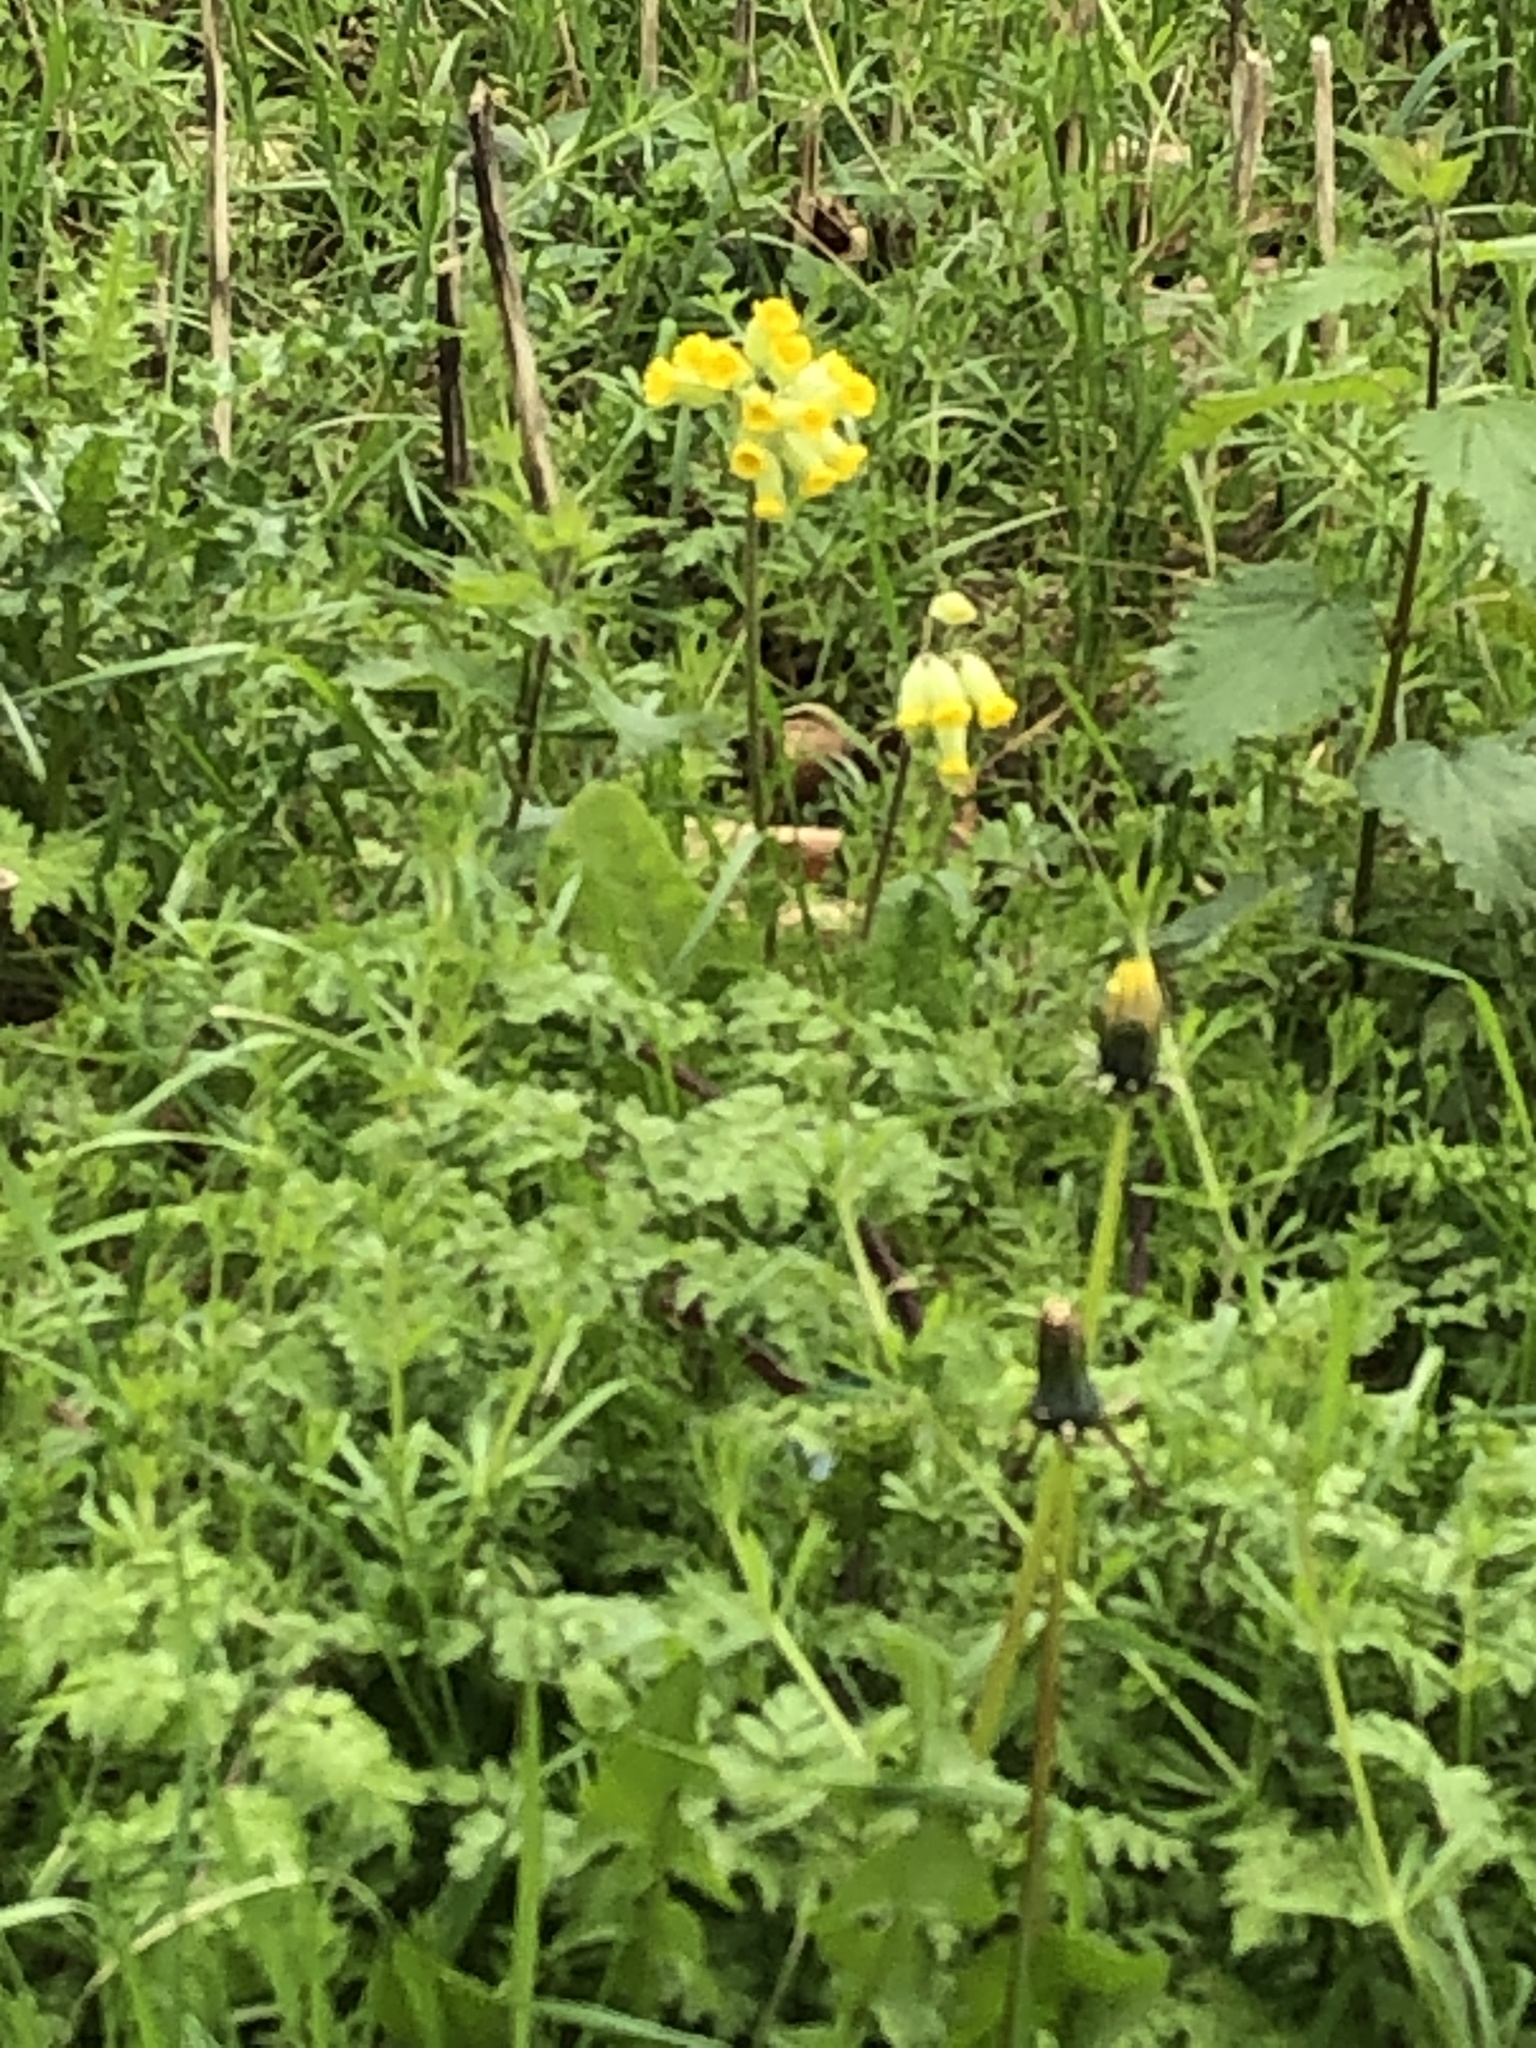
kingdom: Plantae
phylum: Tracheophyta
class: Magnoliopsida
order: Ericales
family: Primulaceae
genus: Primula
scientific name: Primula veris
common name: Cowslip
